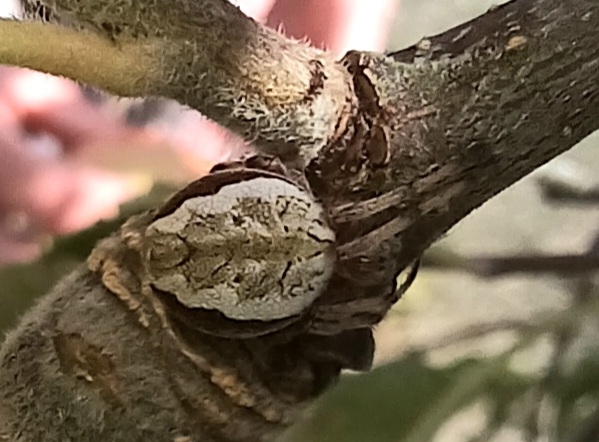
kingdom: Animalia
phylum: Arthropoda
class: Arachnida
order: Araneae
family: Araneidae
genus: Salsa
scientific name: Salsa fuliginata
